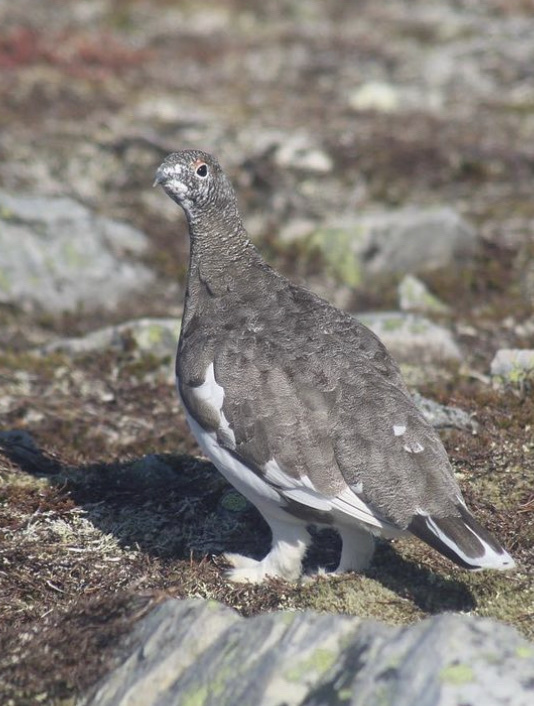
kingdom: Animalia
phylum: Chordata
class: Aves
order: Galliformes
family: Phasianidae
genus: Lagopus
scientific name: Lagopus muta
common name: Rock ptarmigan
